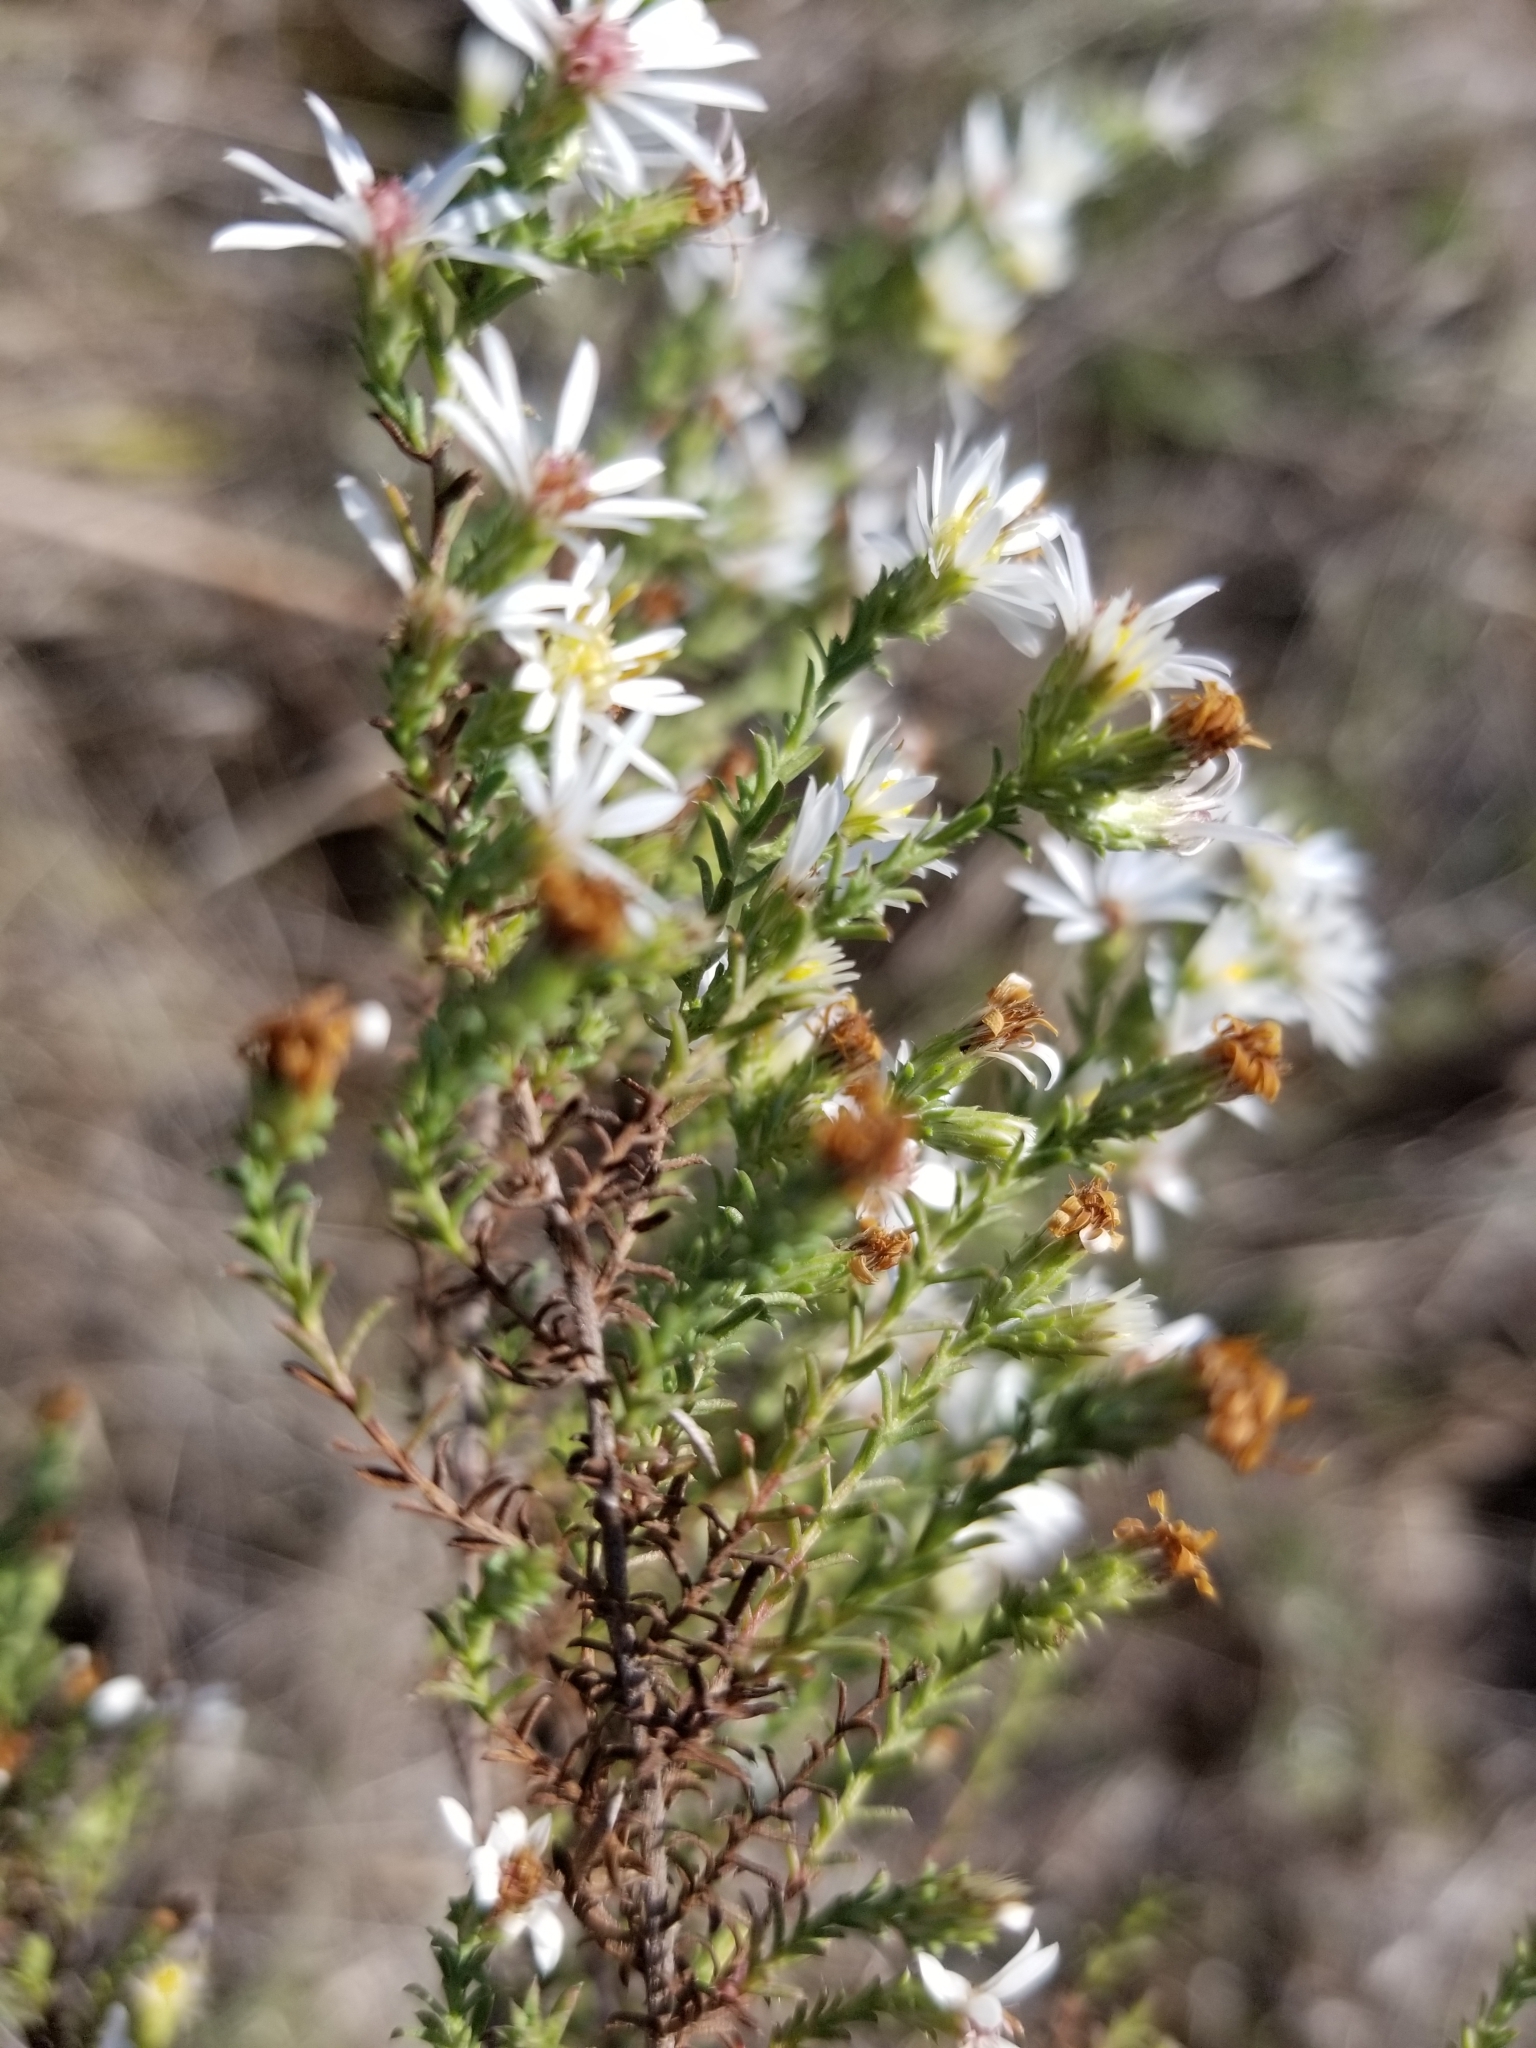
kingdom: Plantae
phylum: Tracheophyta
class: Magnoliopsida
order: Asterales
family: Asteraceae
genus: Symphyotrichum
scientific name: Symphyotrichum ericoides
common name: Heath aster
